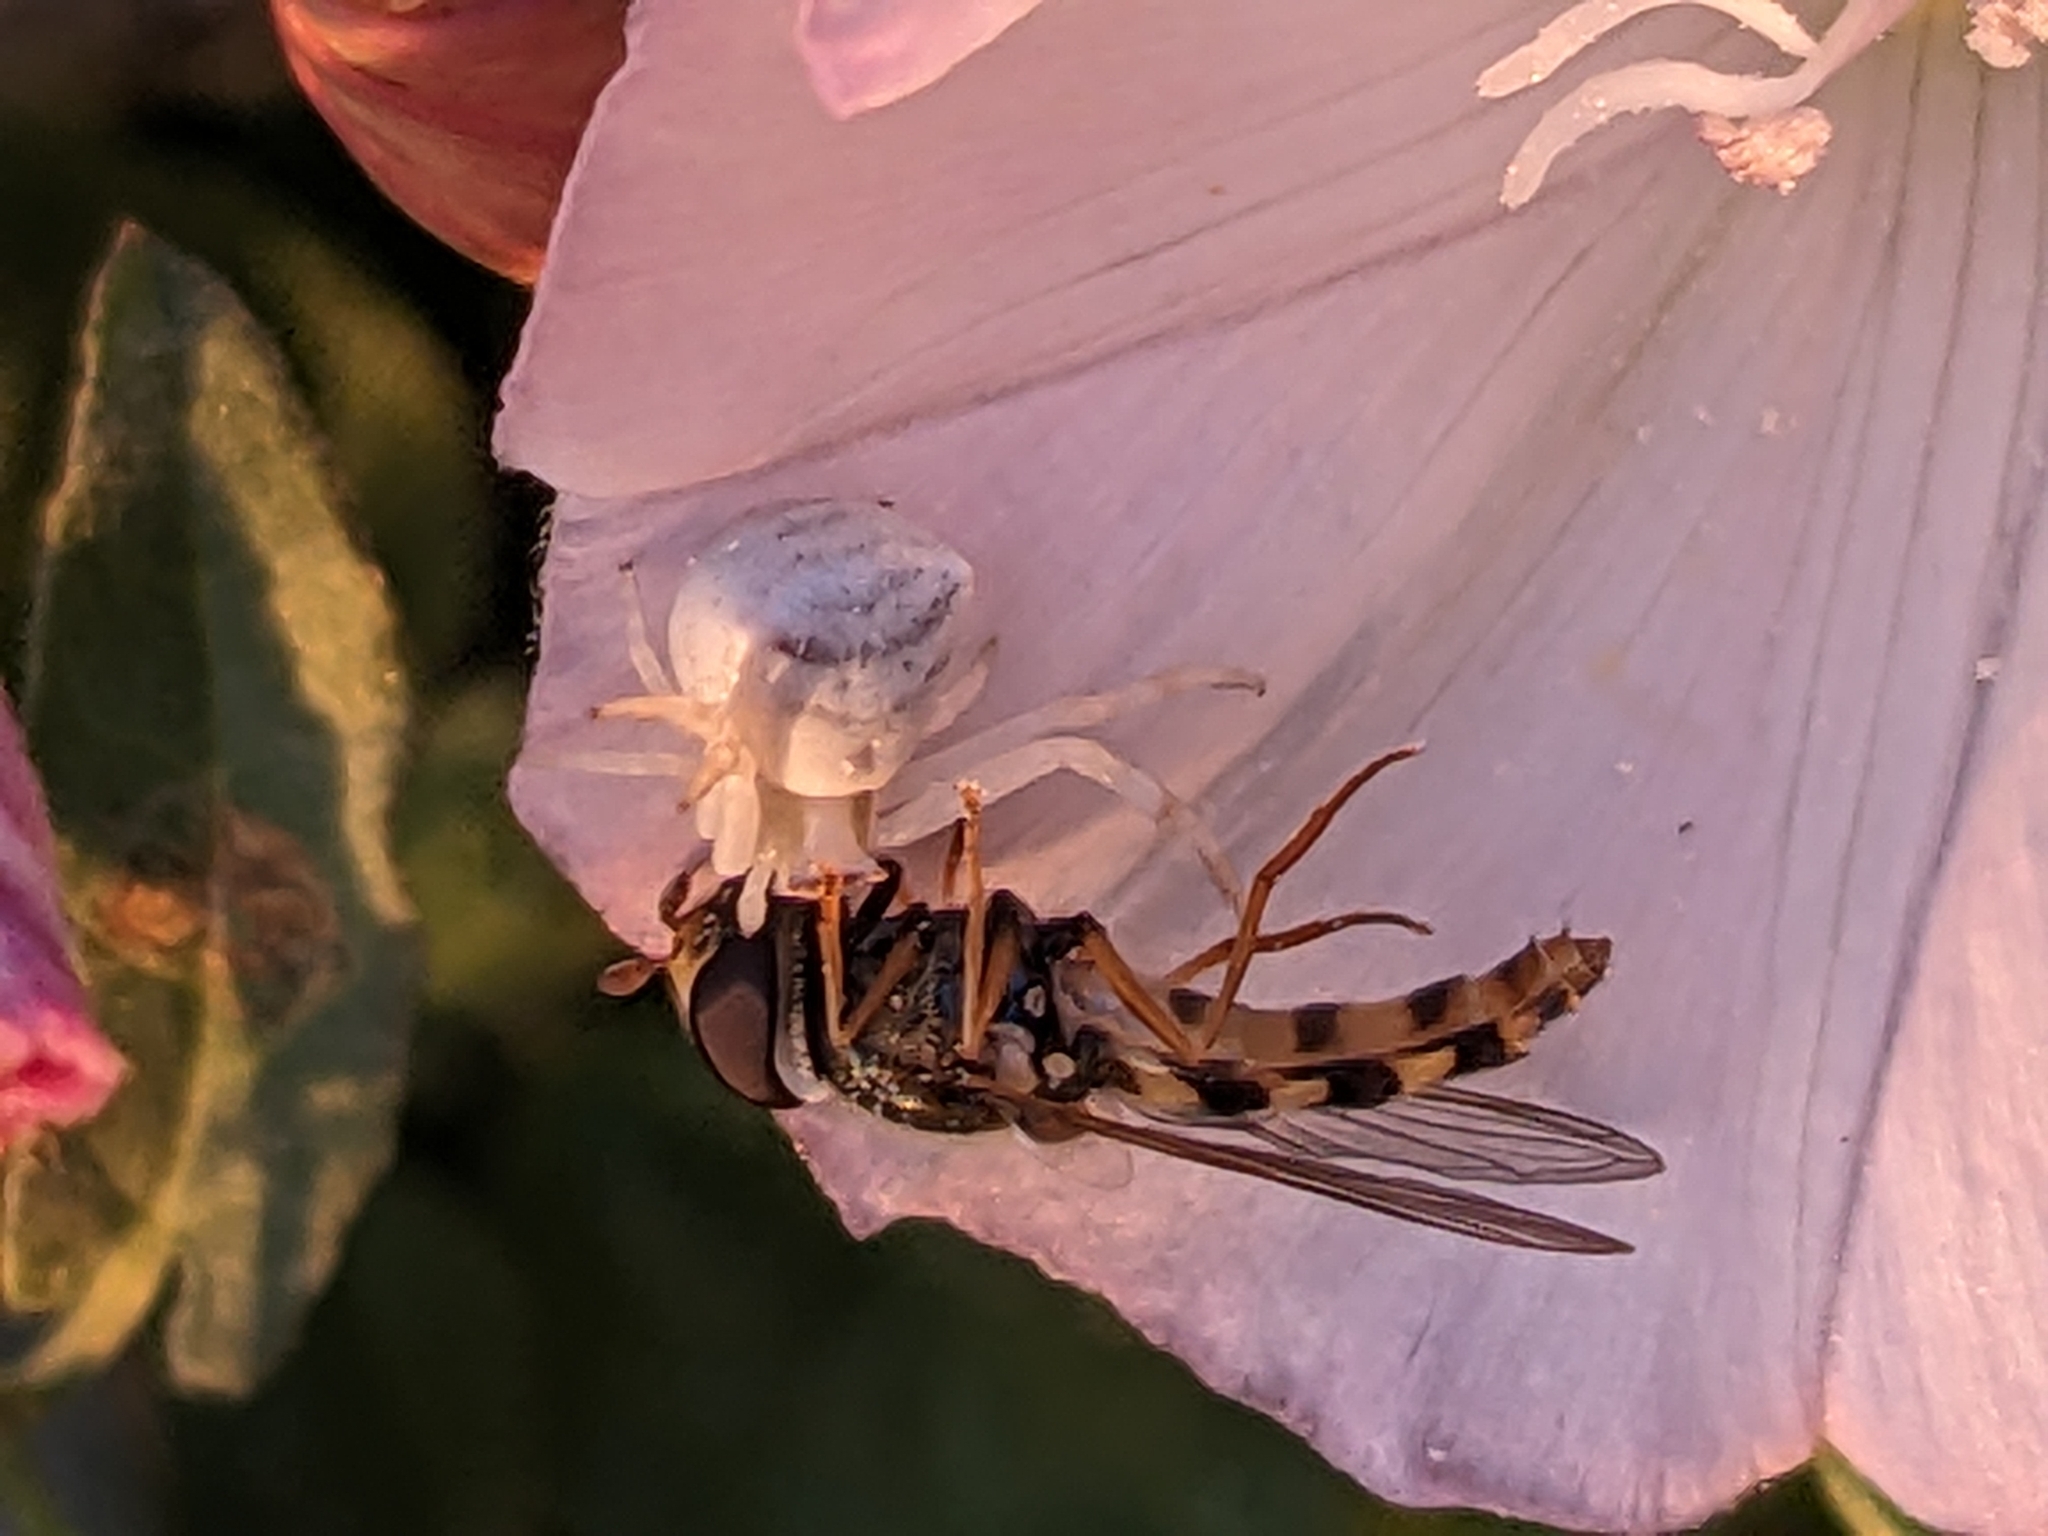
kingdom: Animalia
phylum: Arthropoda
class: Arachnida
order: Araneae
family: Thomisidae
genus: Thomisus
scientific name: Thomisus onustus
